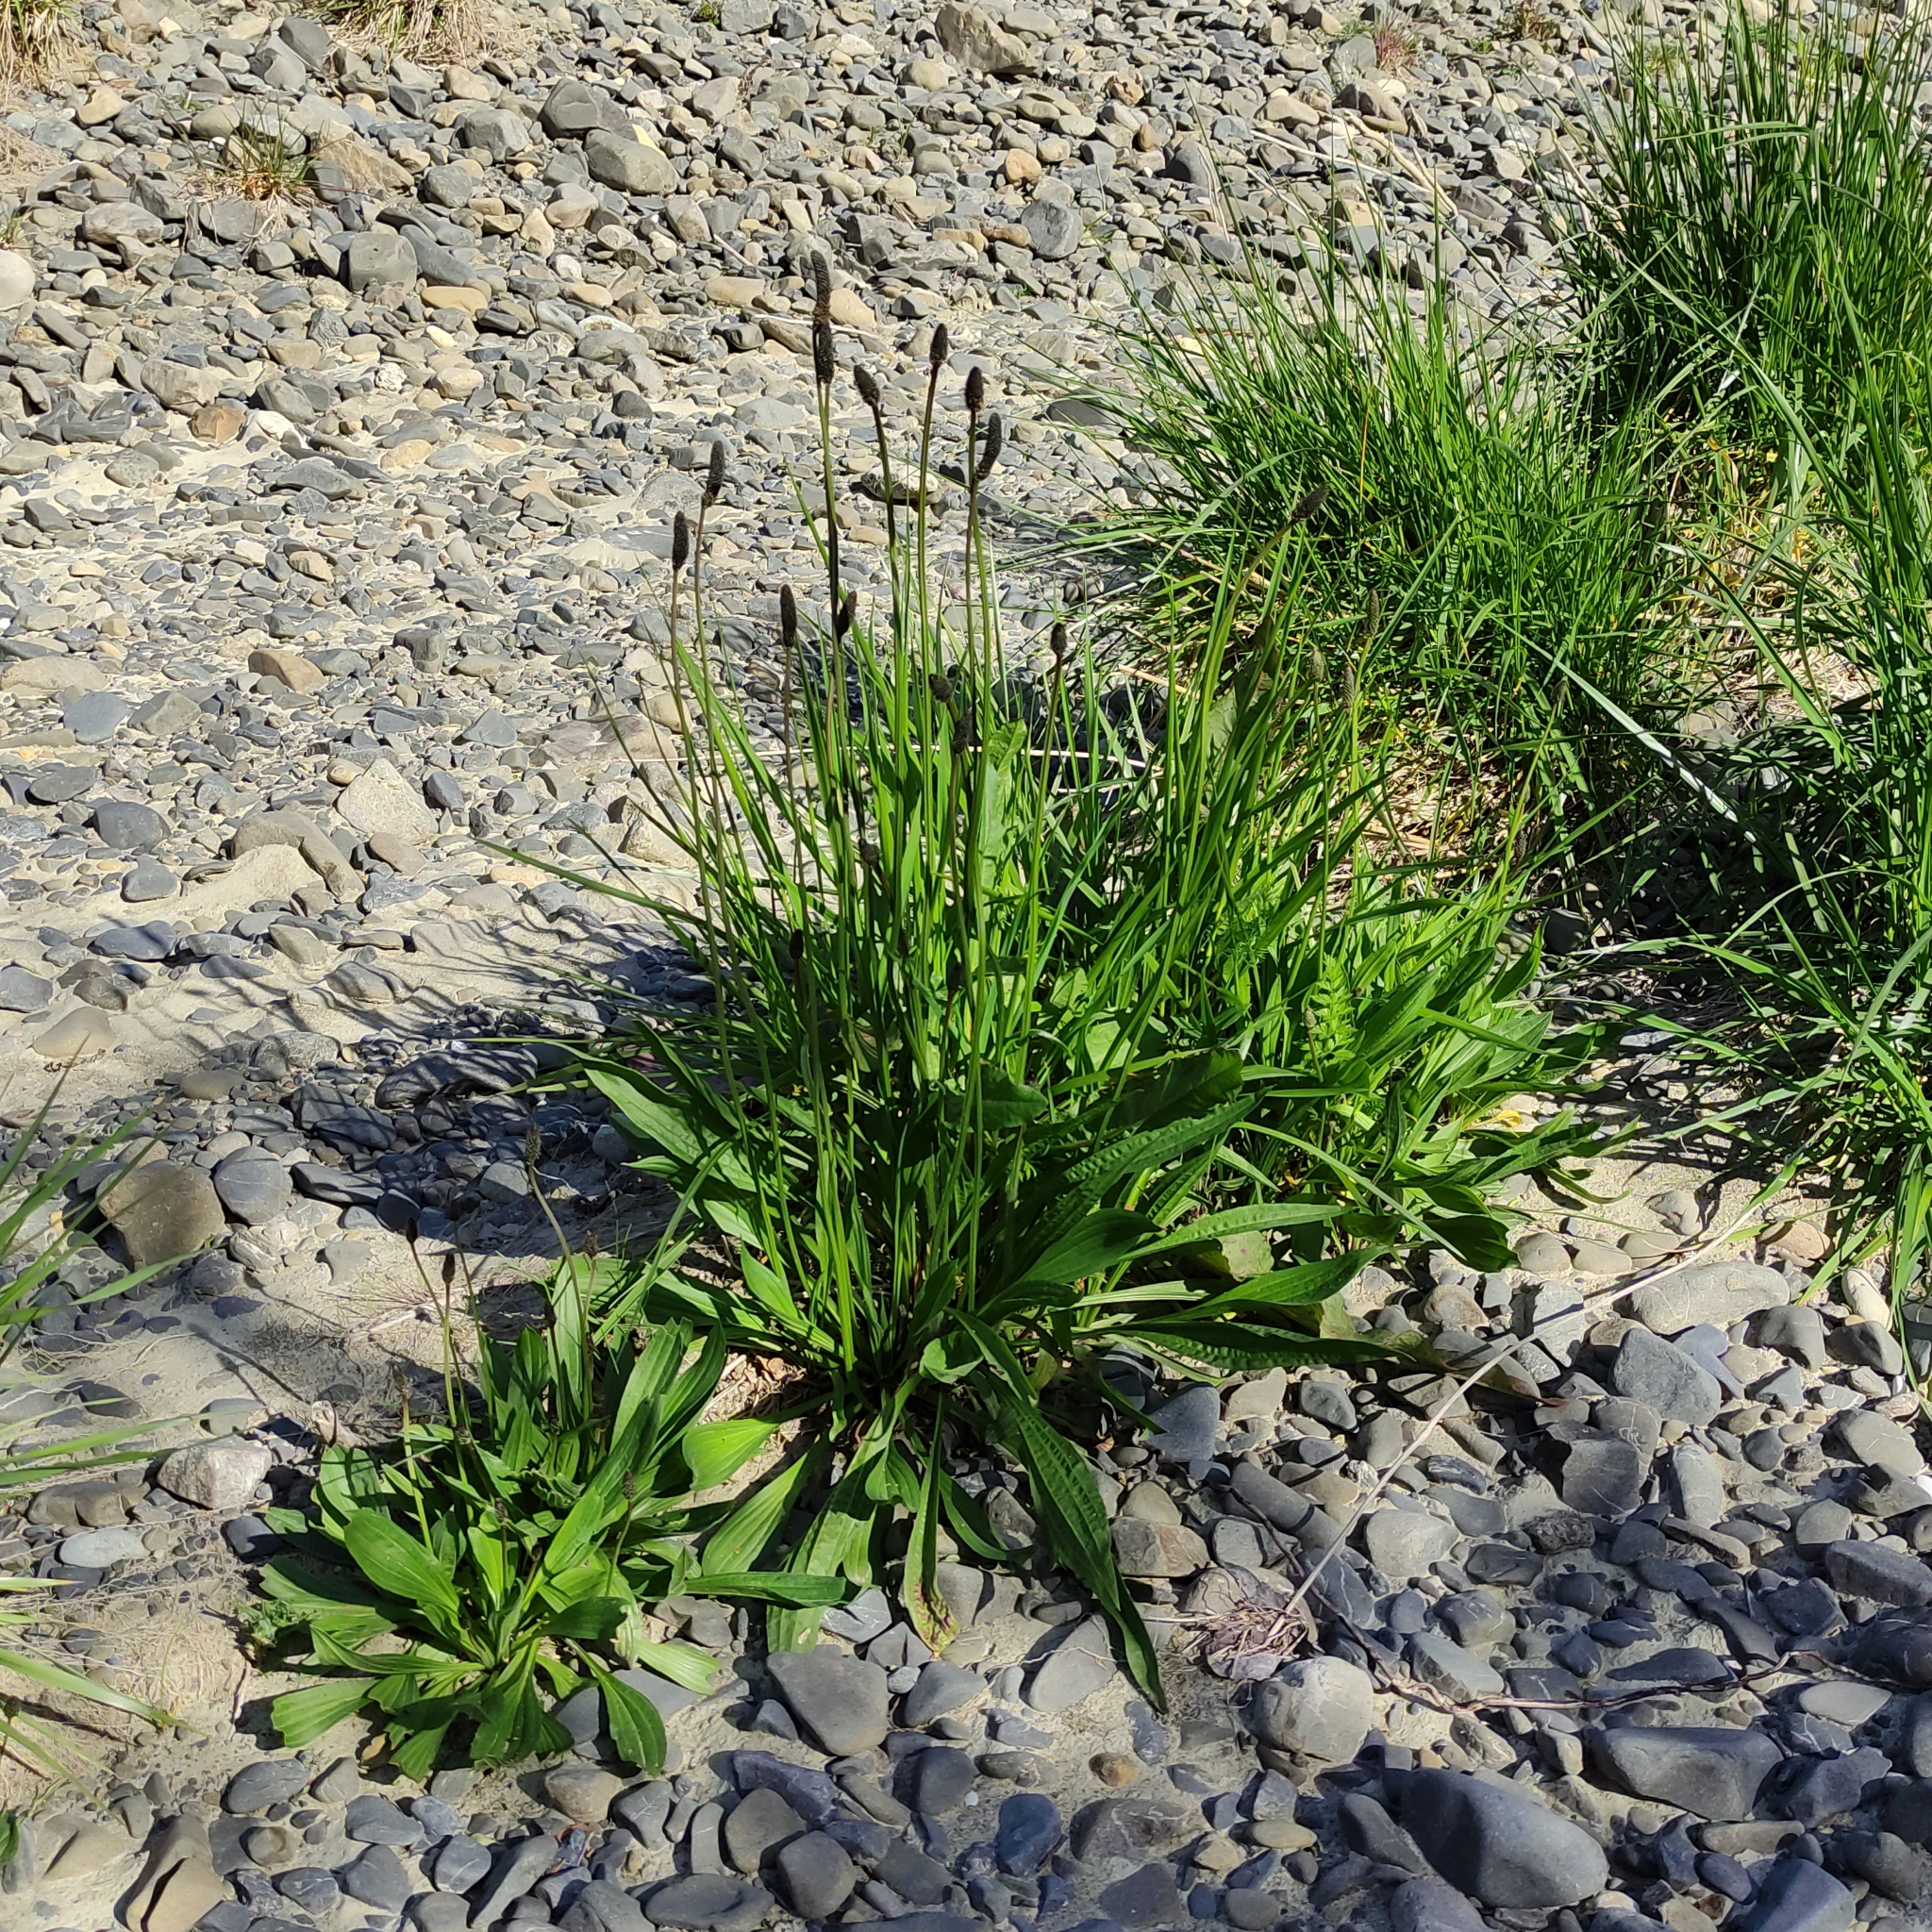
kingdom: Plantae
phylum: Tracheophyta
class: Magnoliopsida
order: Lamiales
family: Plantaginaceae
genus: Plantago
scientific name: Plantago lanceolata
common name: Ribwort plantain
